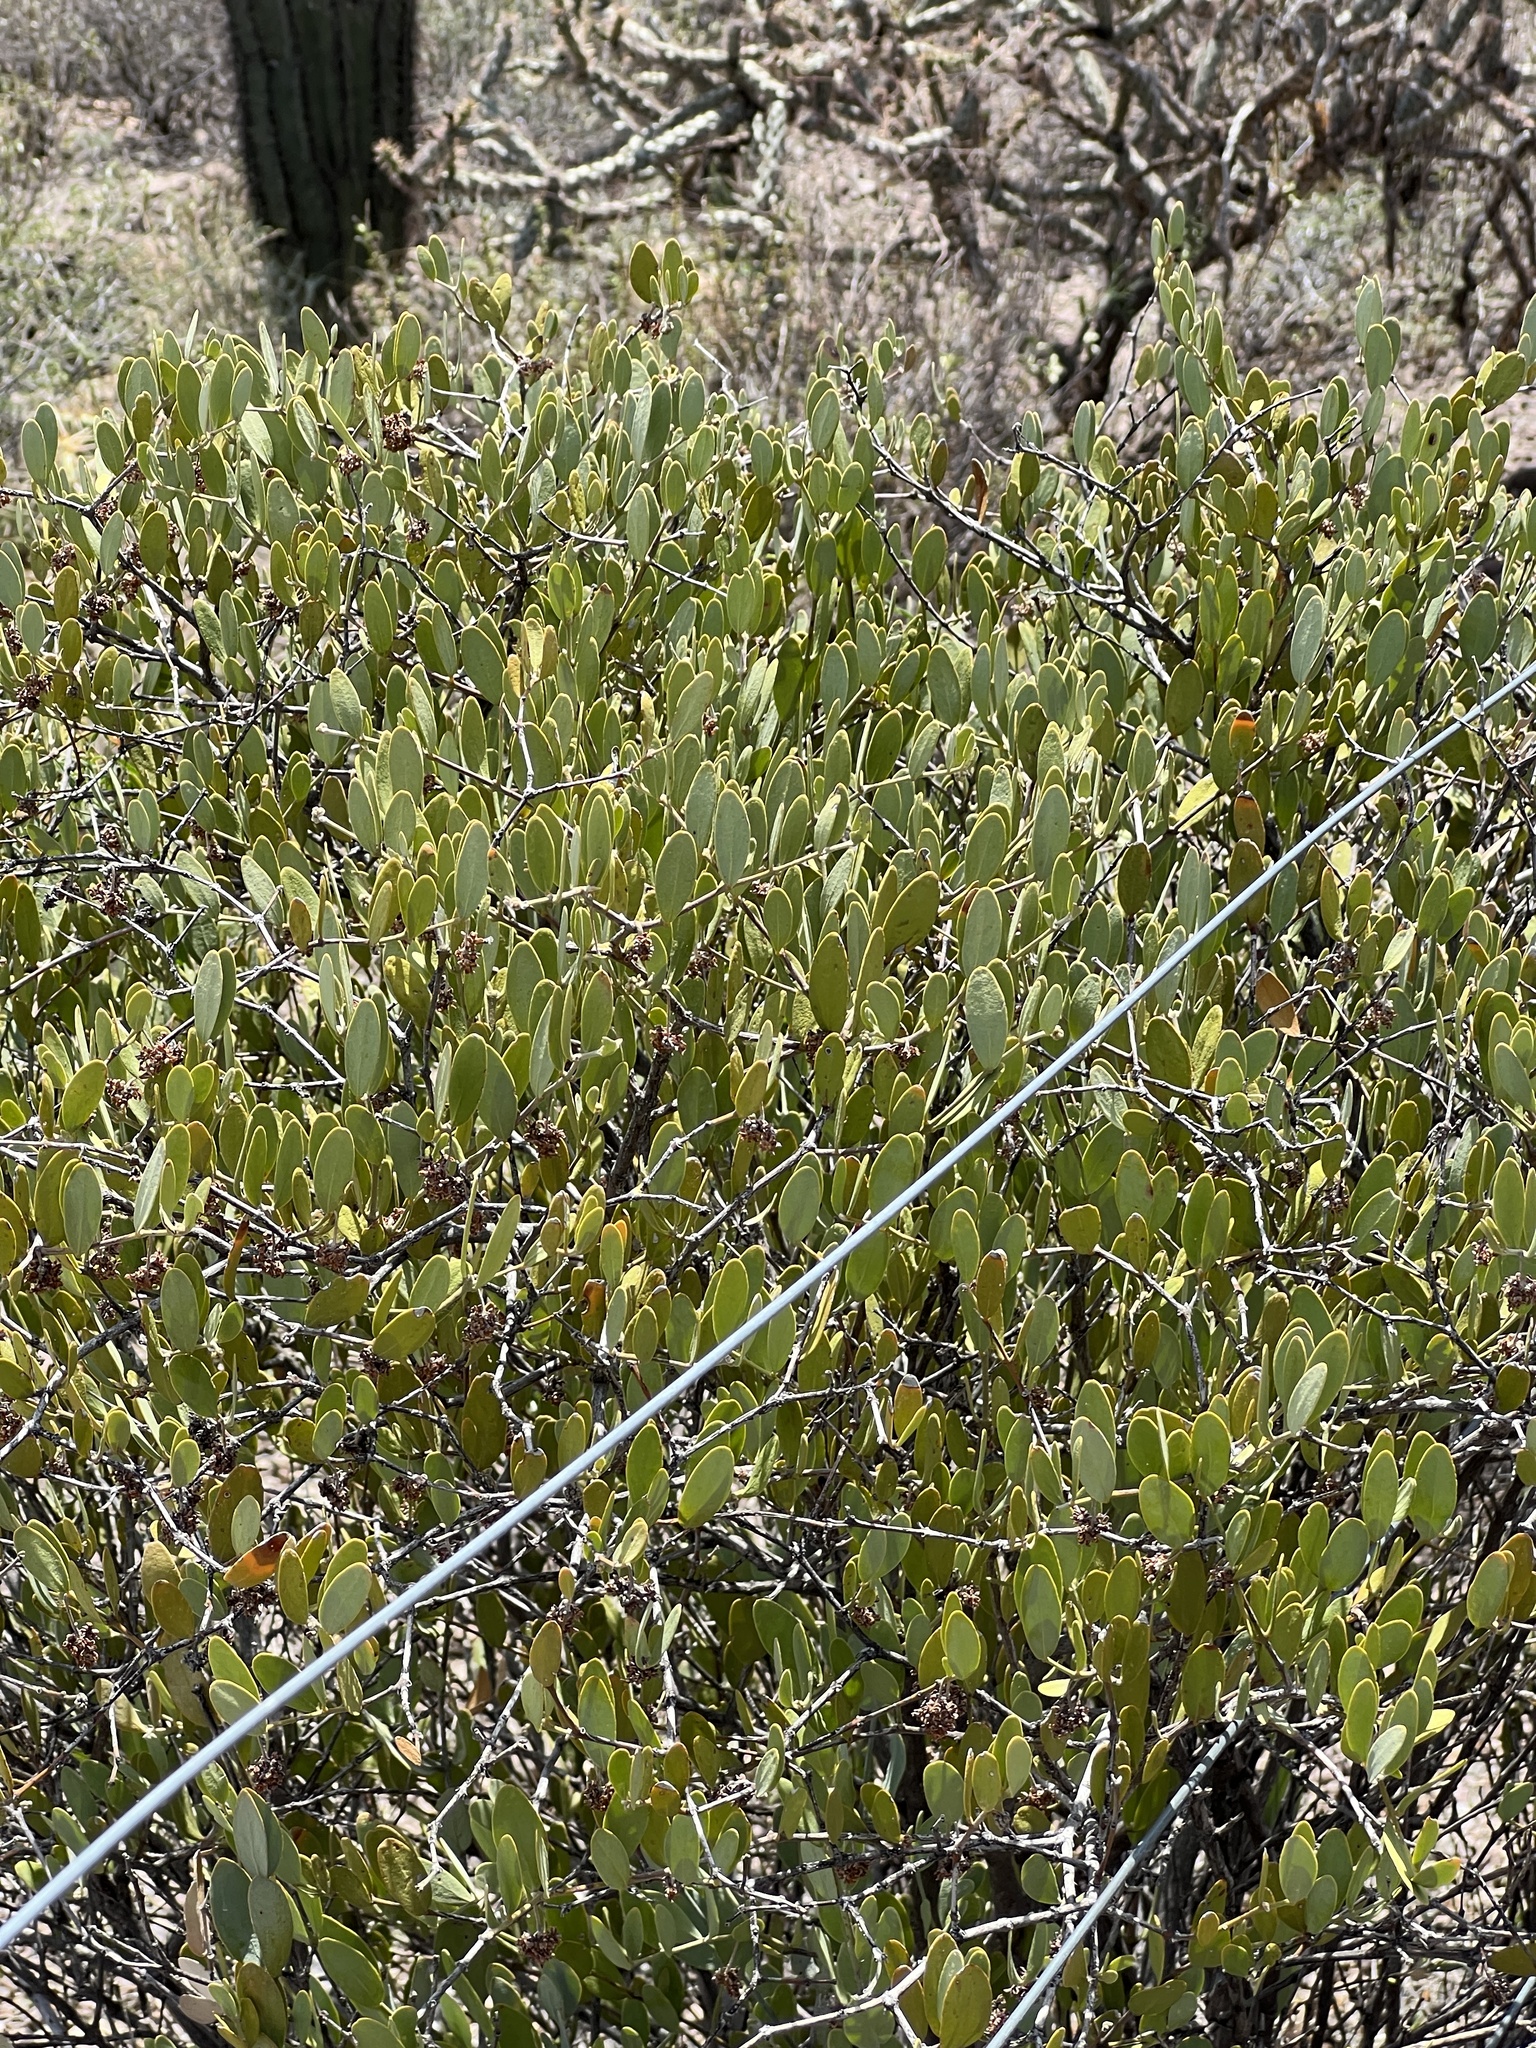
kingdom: Plantae
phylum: Tracheophyta
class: Magnoliopsida
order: Caryophyllales
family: Simmondsiaceae
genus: Simmondsia
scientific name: Simmondsia chinensis
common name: Jojoba
